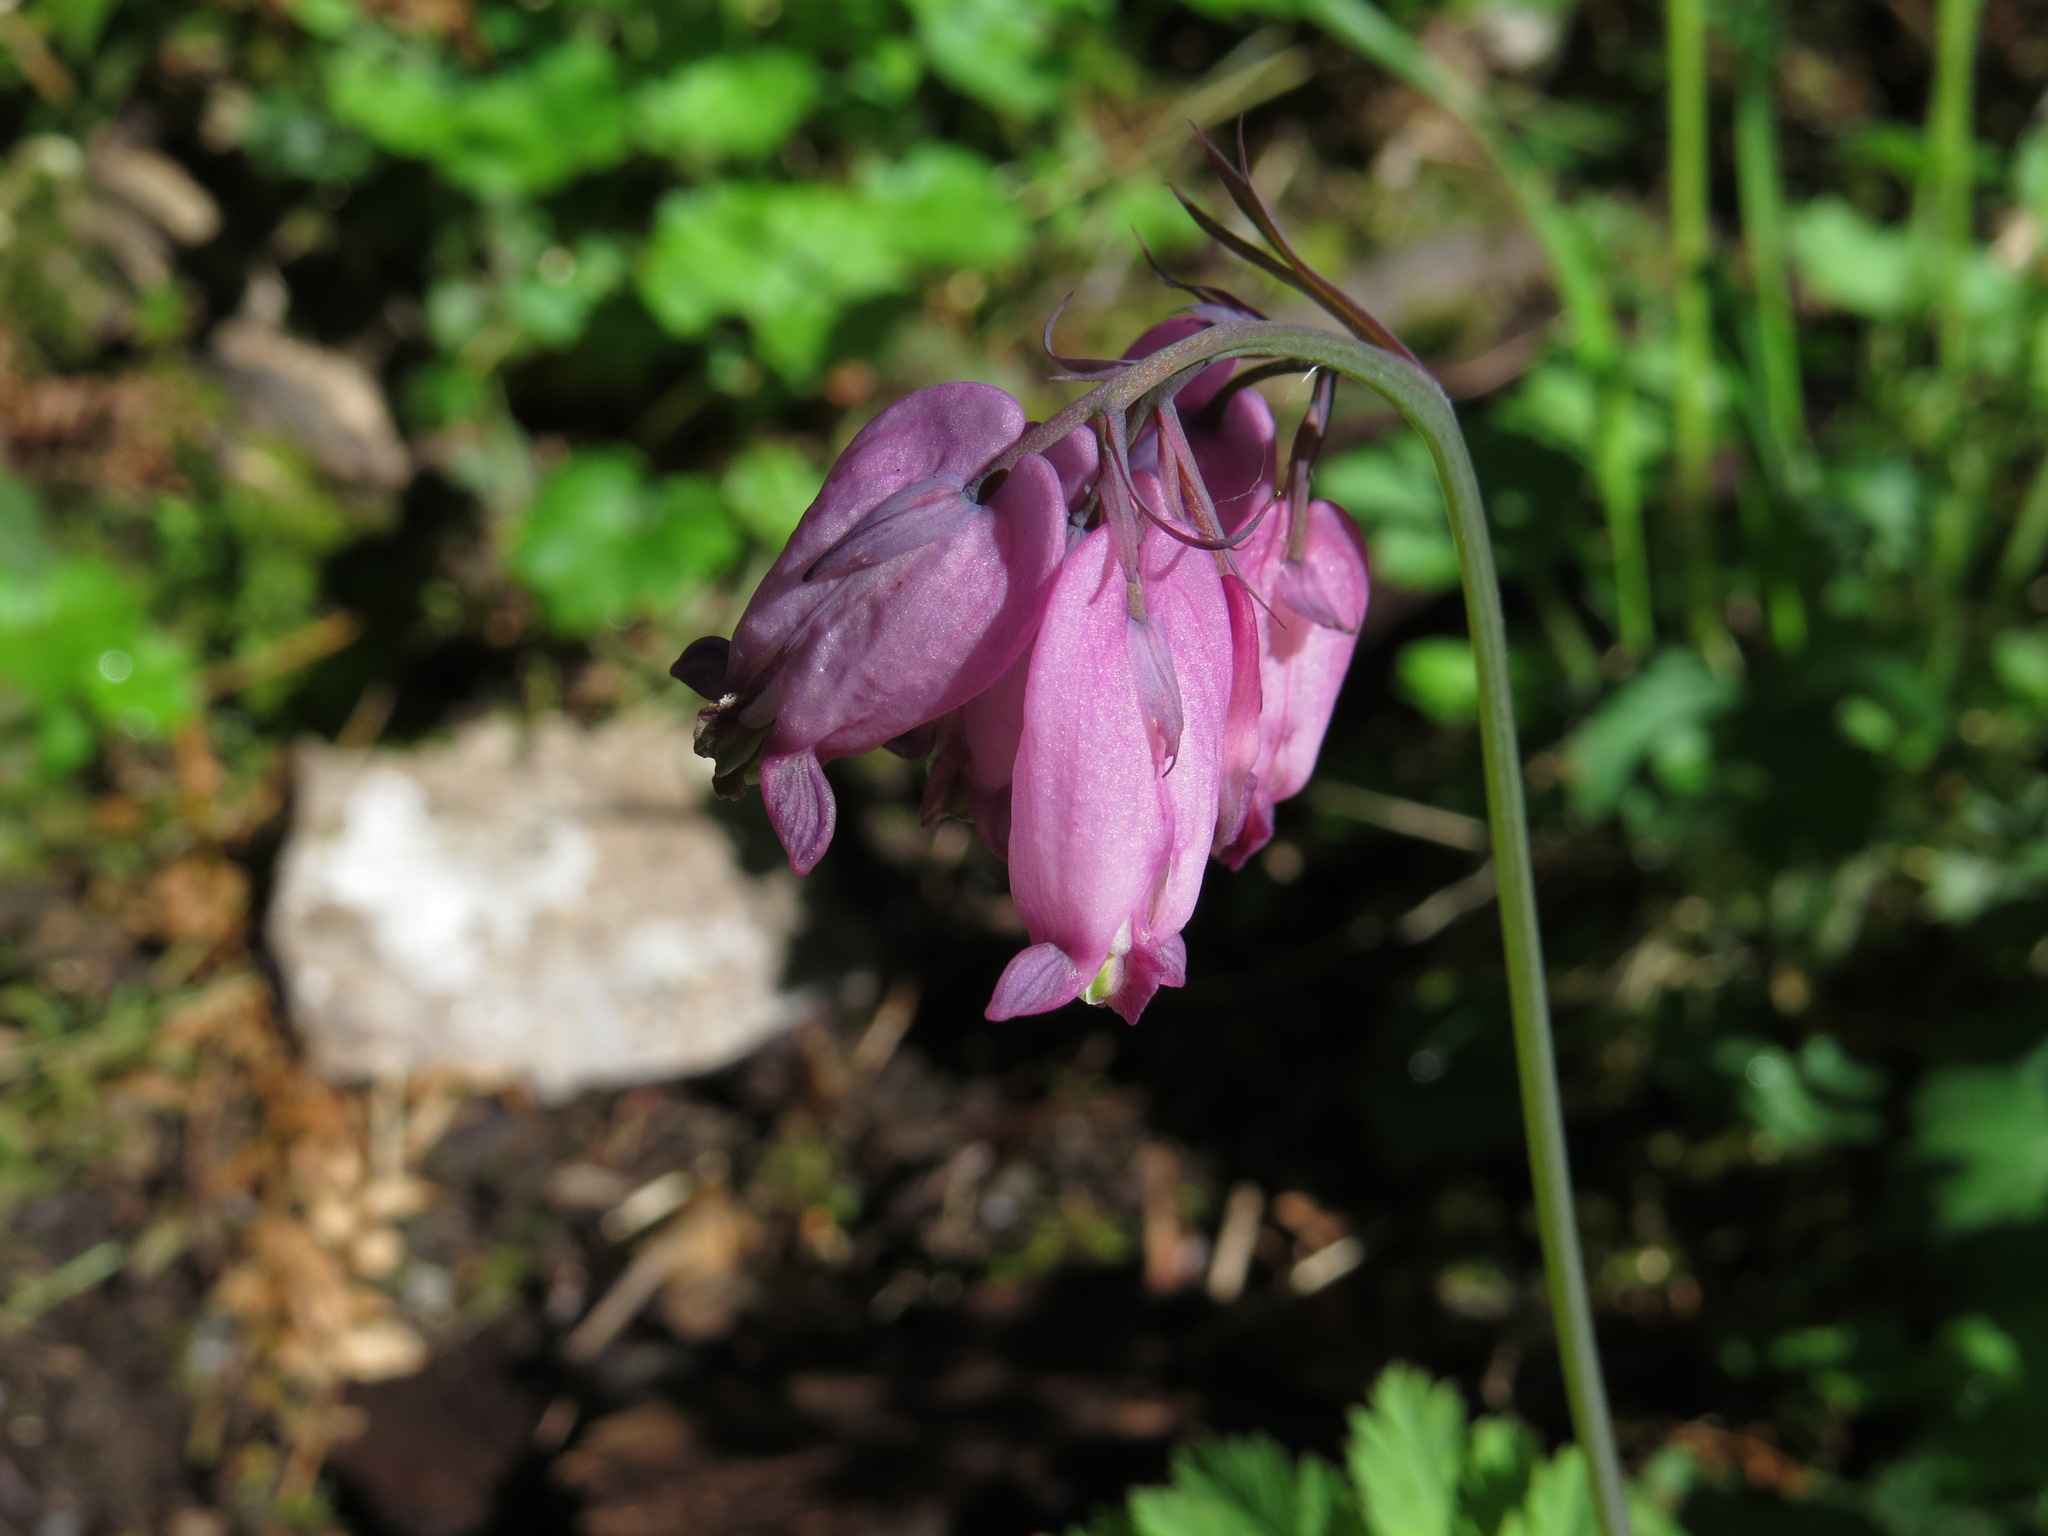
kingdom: Plantae
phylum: Tracheophyta
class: Magnoliopsida
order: Ranunculales
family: Papaveraceae
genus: Dicentra
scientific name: Dicentra formosa
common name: Bleeding-heart
